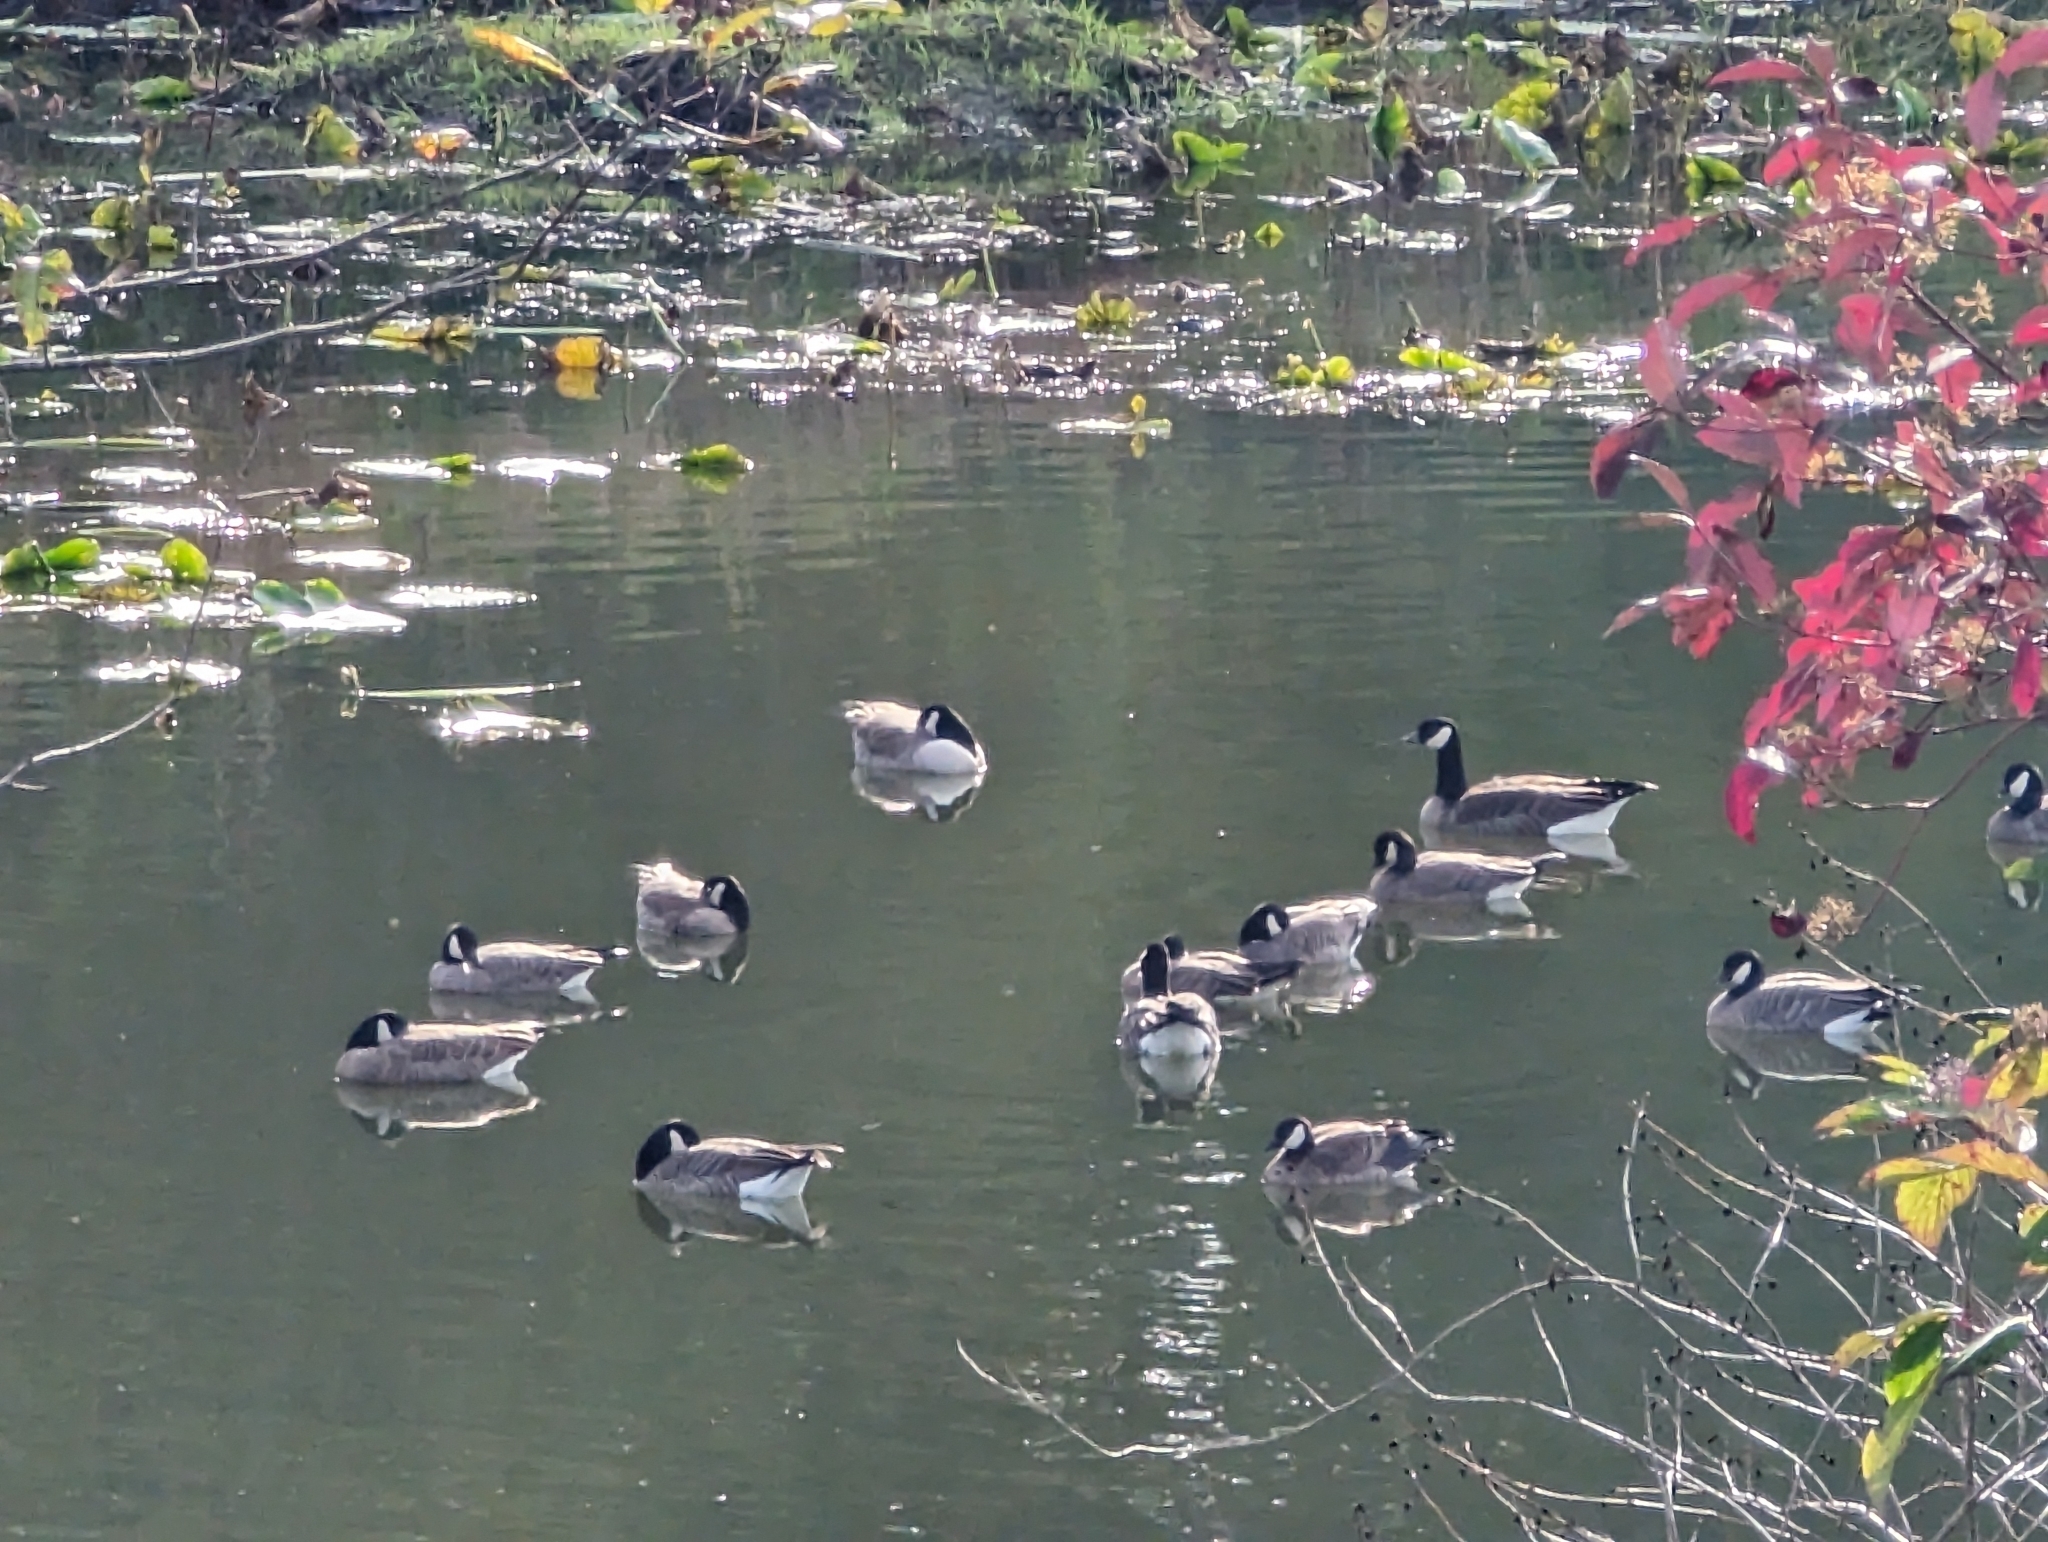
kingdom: Animalia
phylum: Chordata
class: Aves
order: Anseriformes
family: Anatidae
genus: Branta
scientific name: Branta hutchinsii
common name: Cackling goose
